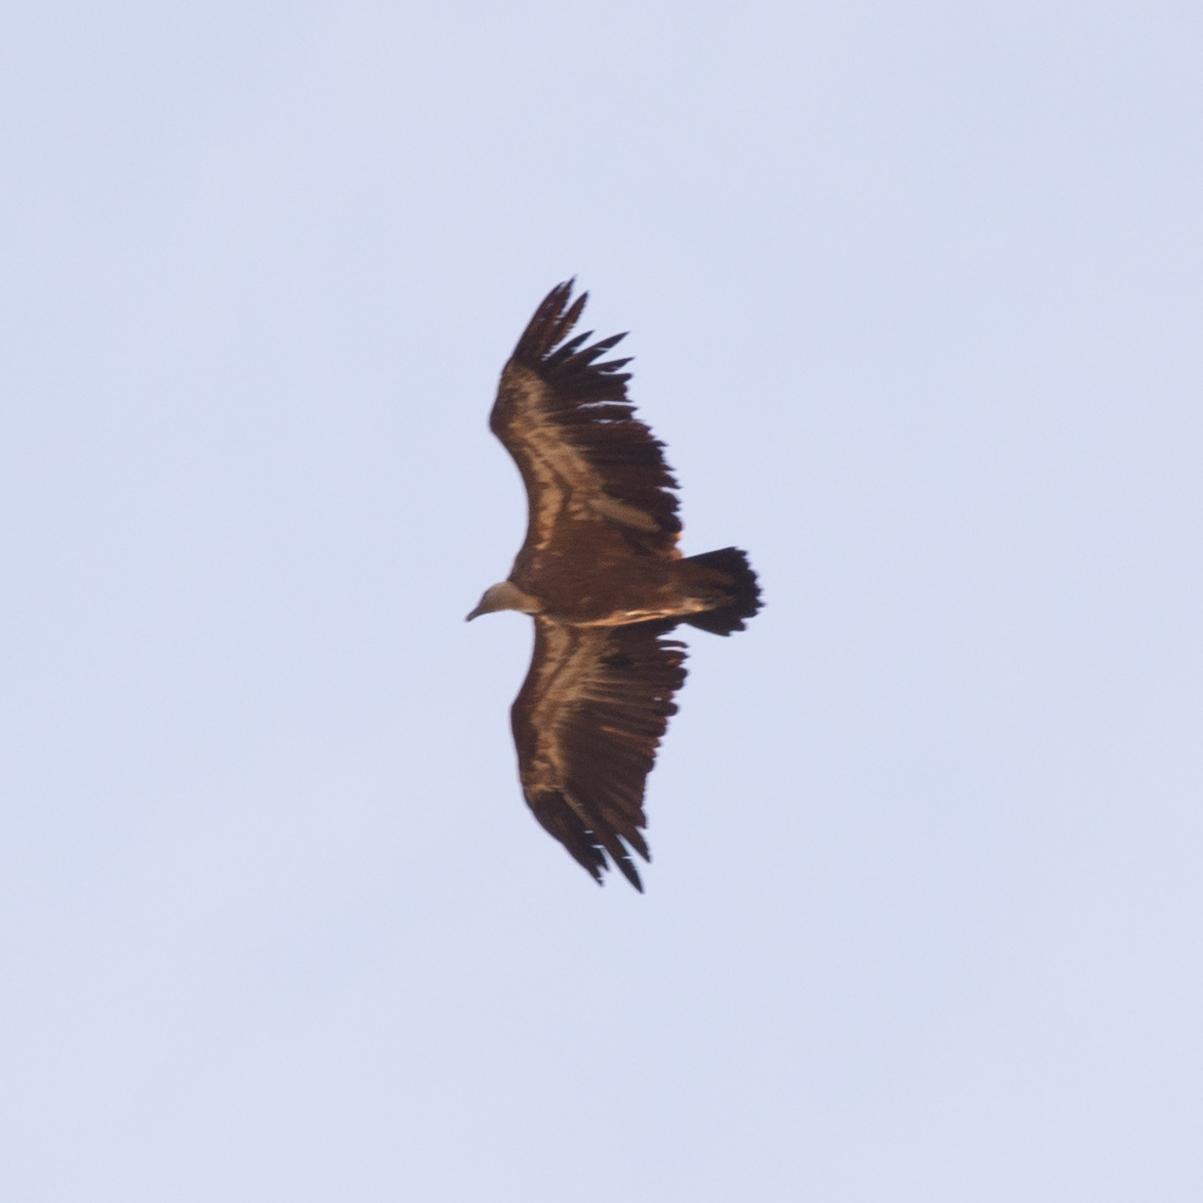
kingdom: Animalia
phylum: Chordata
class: Aves
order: Accipitriformes
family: Accipitridae
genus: Gyps
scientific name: Gyps fulvus
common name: Griffon vulture
